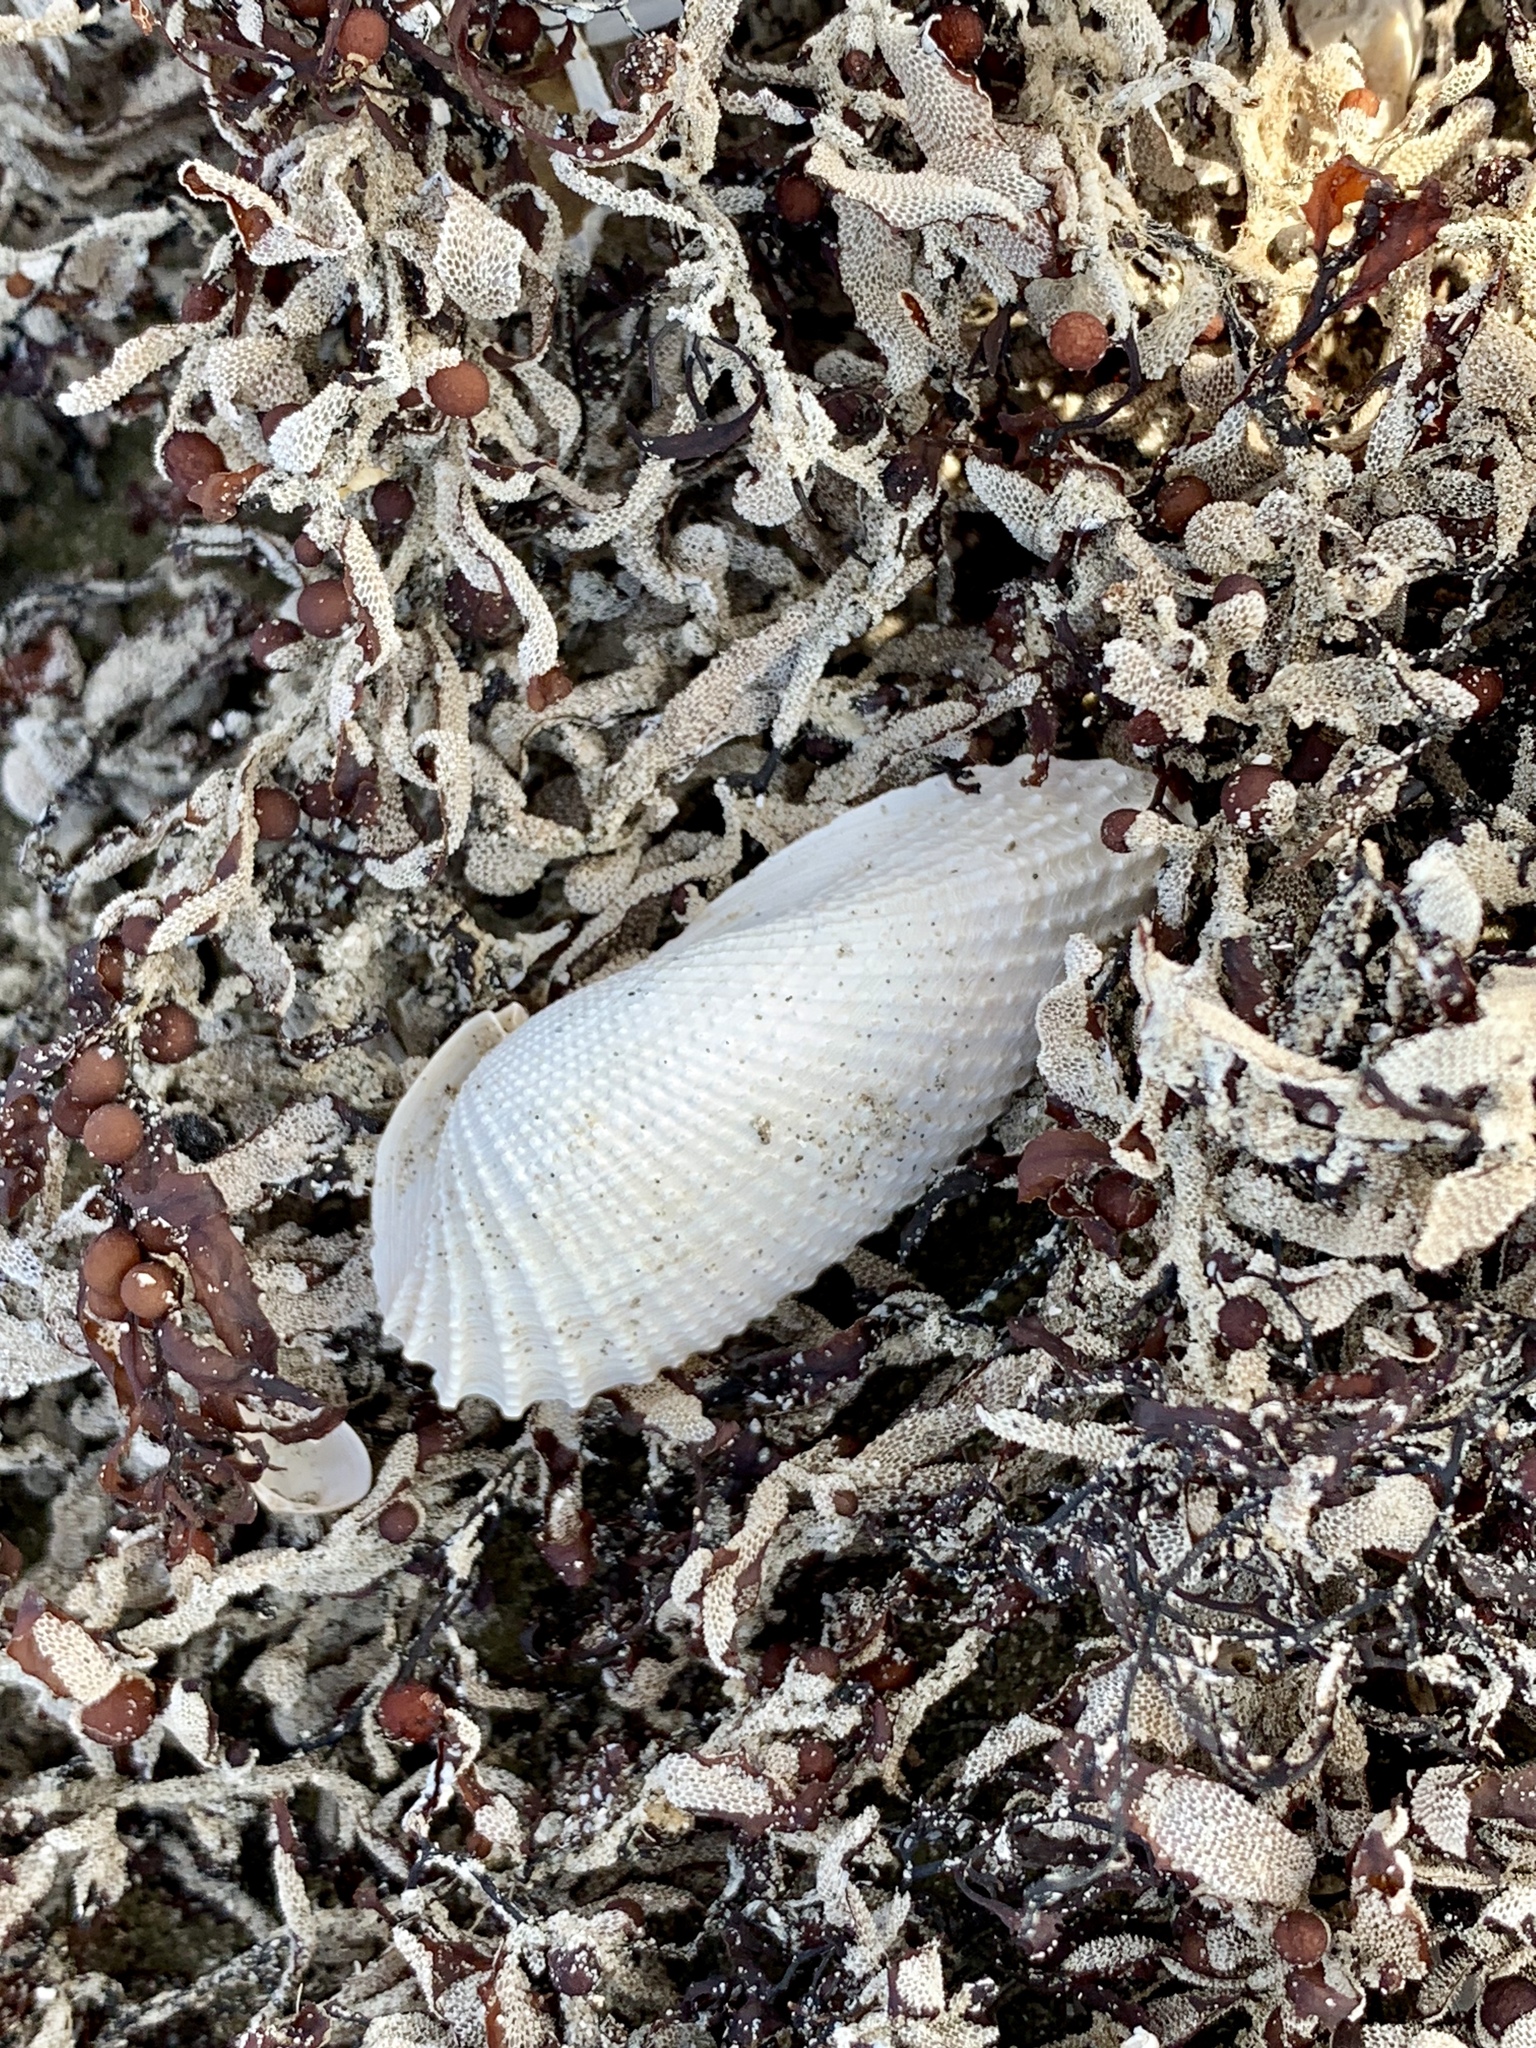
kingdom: Animalia
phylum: Mollusca
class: Bivalvia
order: Myida
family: Pholadidae
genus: Cyrtopleura
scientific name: Cyrtopleura costata
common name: Angel wing
